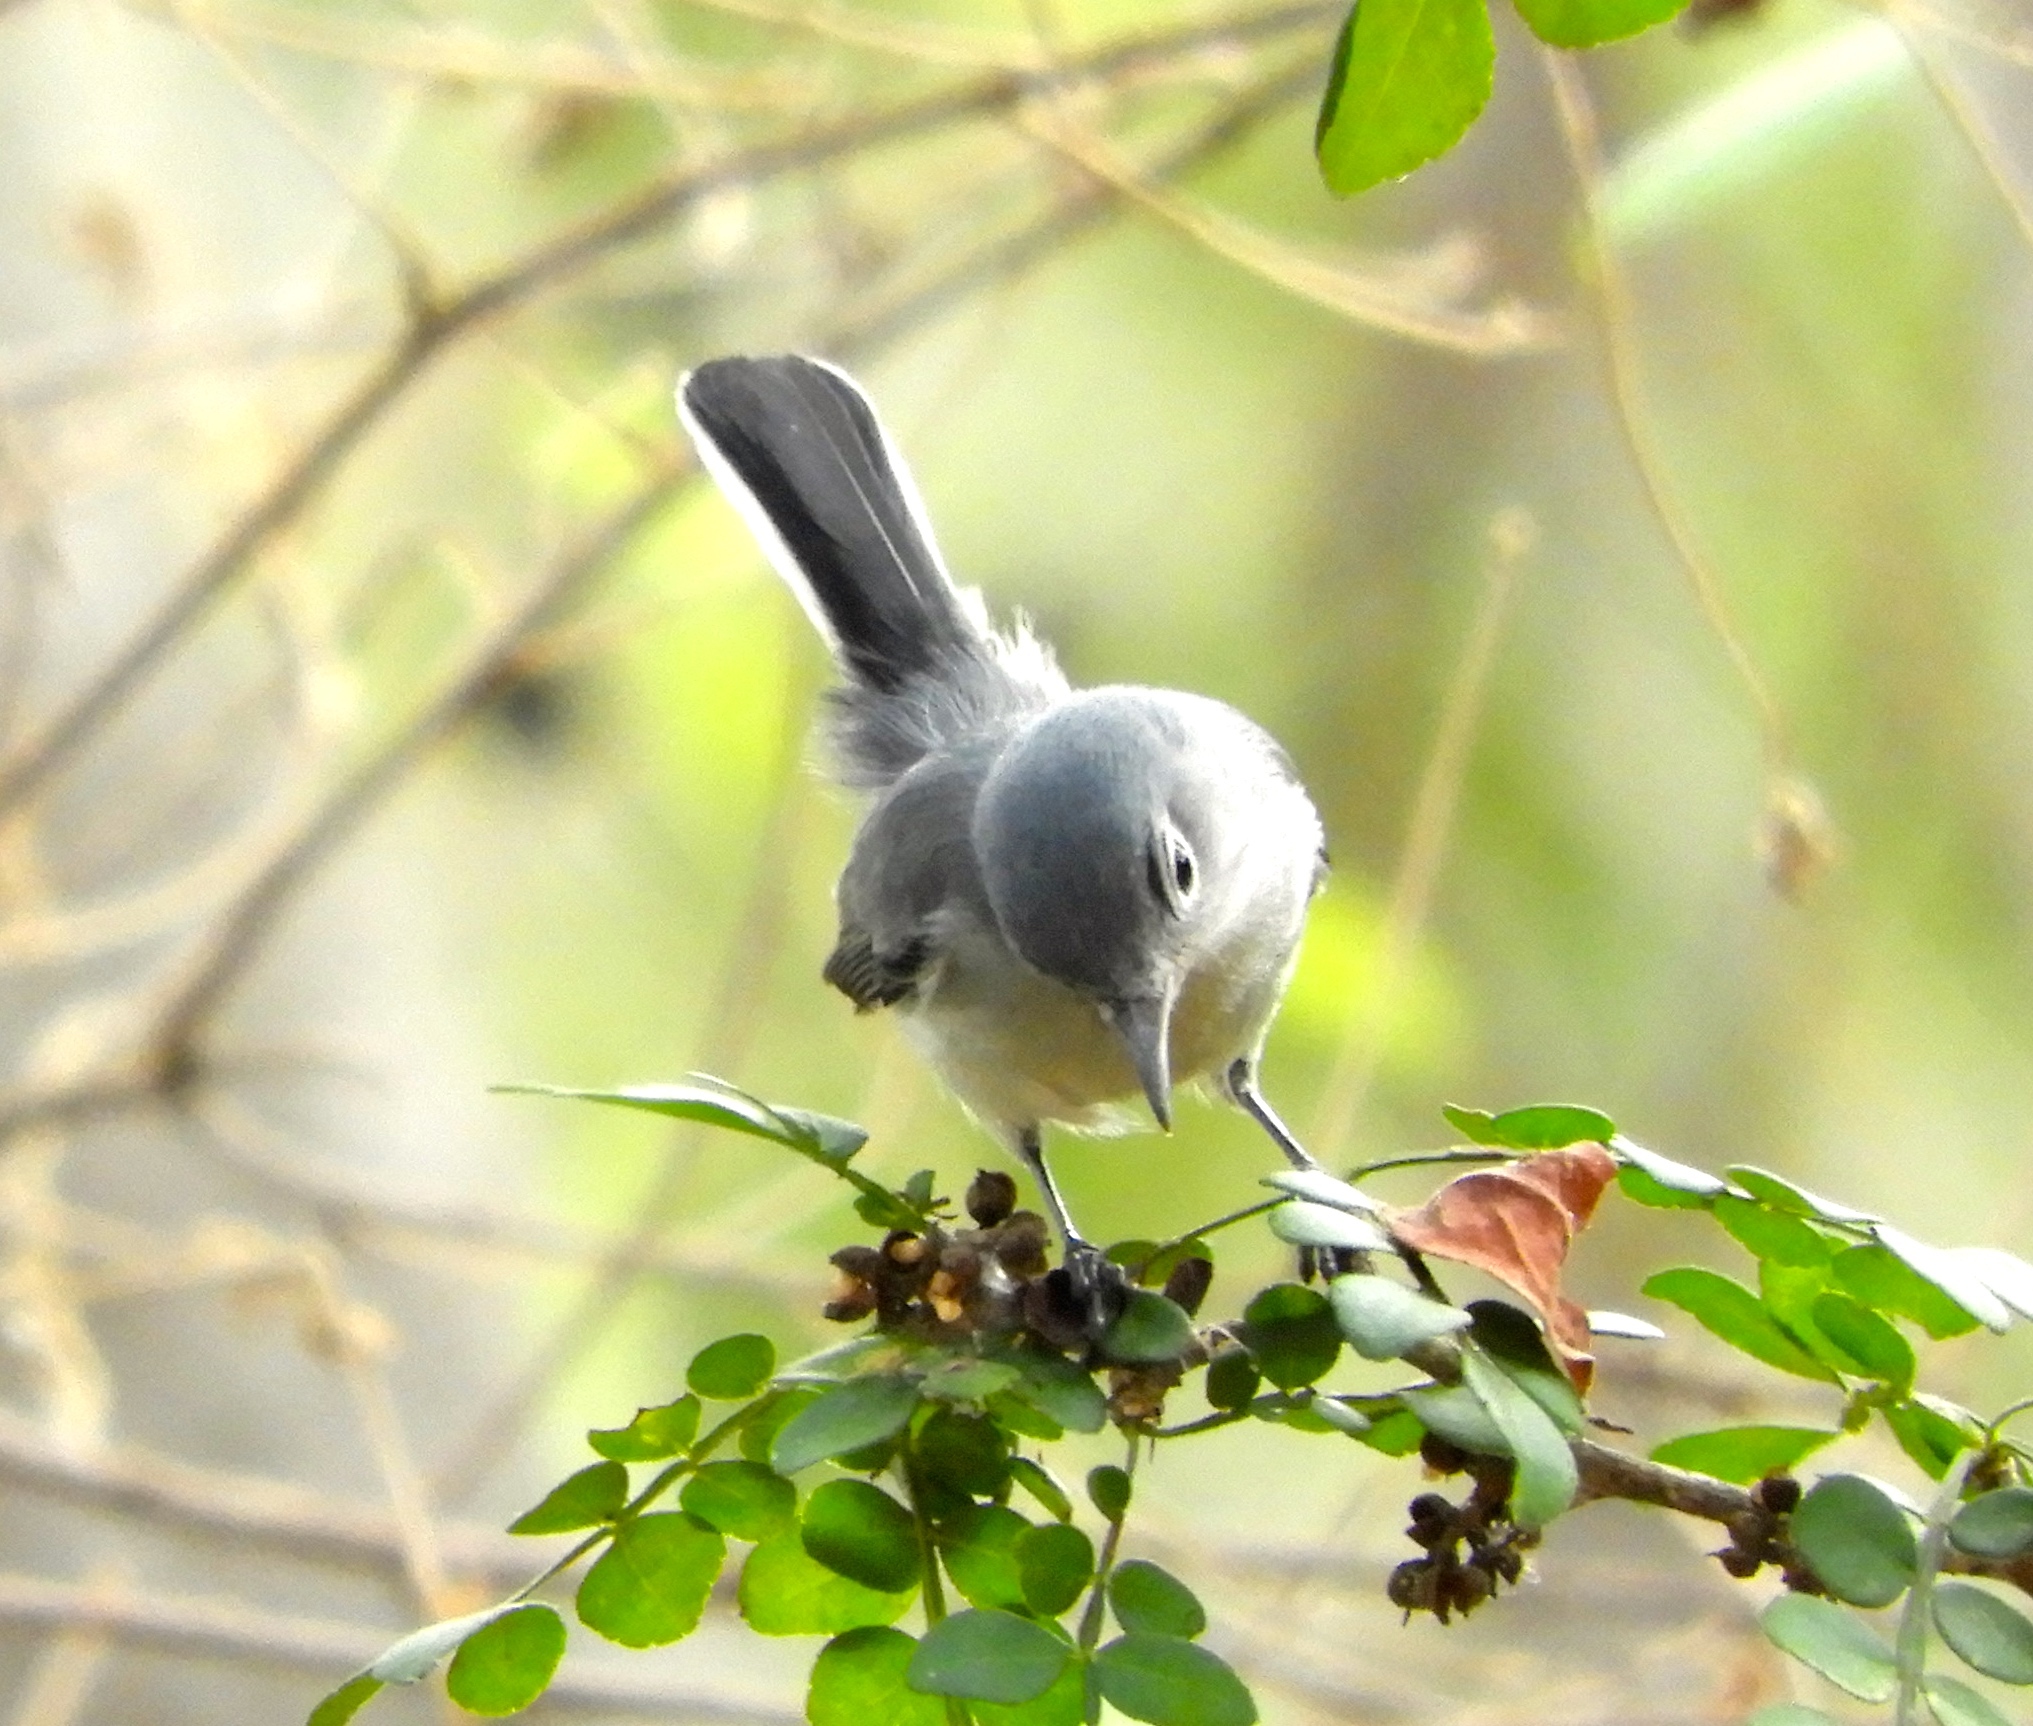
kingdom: Animalia
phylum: Chordata
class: Aves
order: Passeriformes
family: Polioptilidae
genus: Polioptila
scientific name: Polioptila caerulea
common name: Blue-gray gnatcatcher
